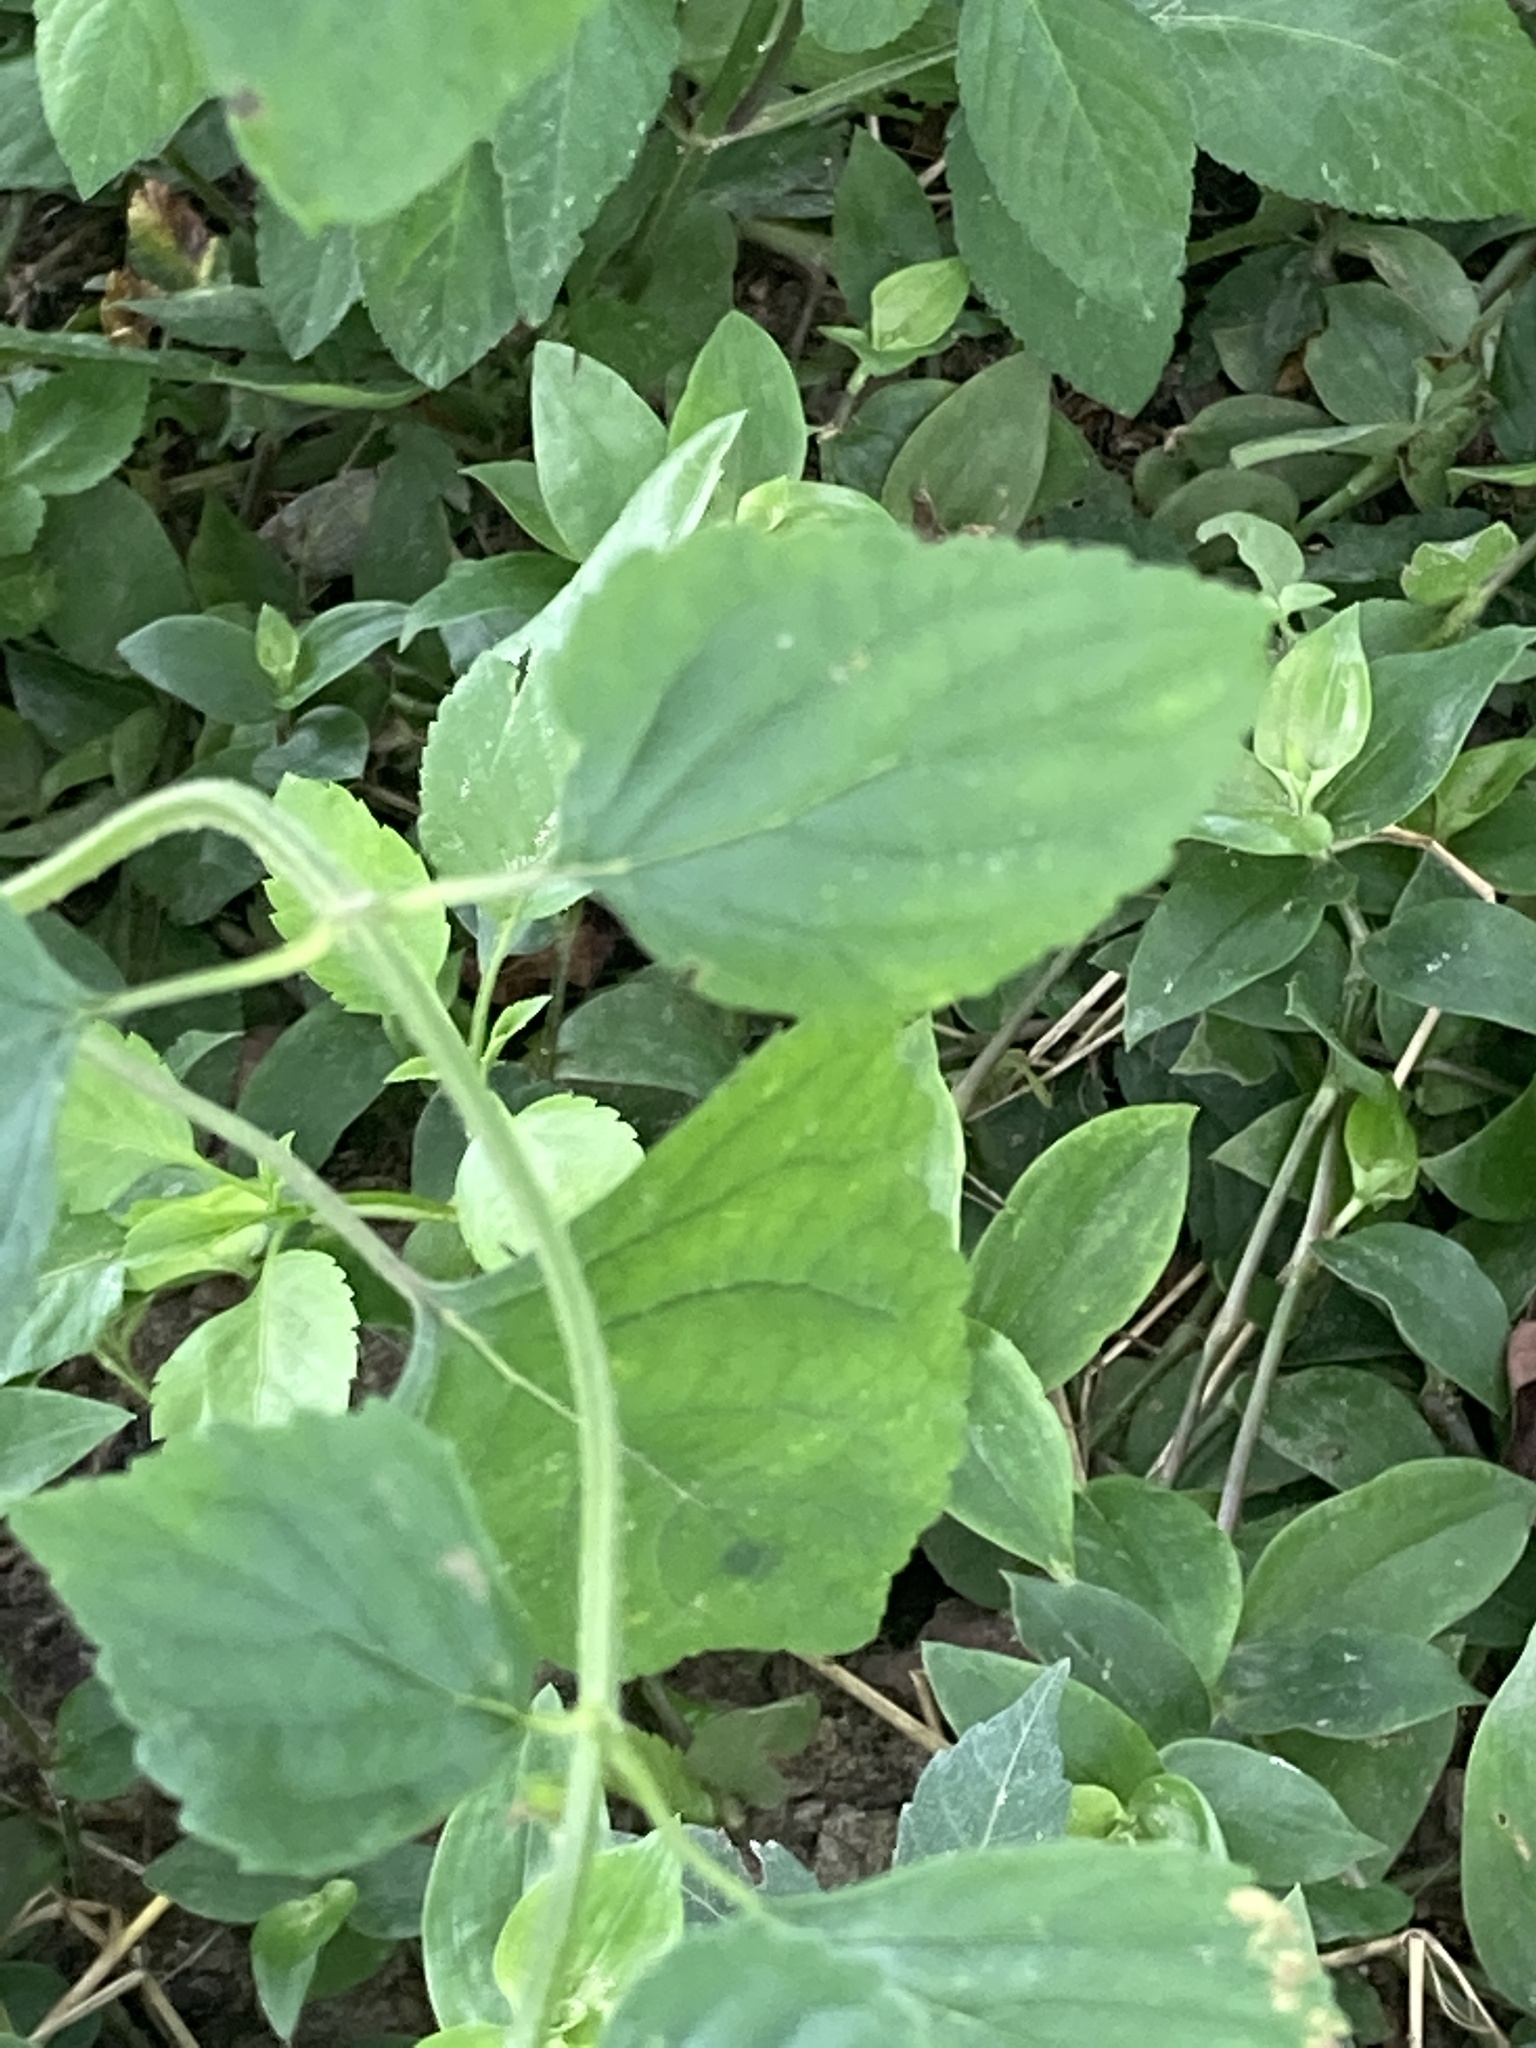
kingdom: Plantae
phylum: Tracheophyta
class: Magnoliopsida
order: Lamiales
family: Lamiaceae
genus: Cantinoa
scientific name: Cantinoa mutabilis
